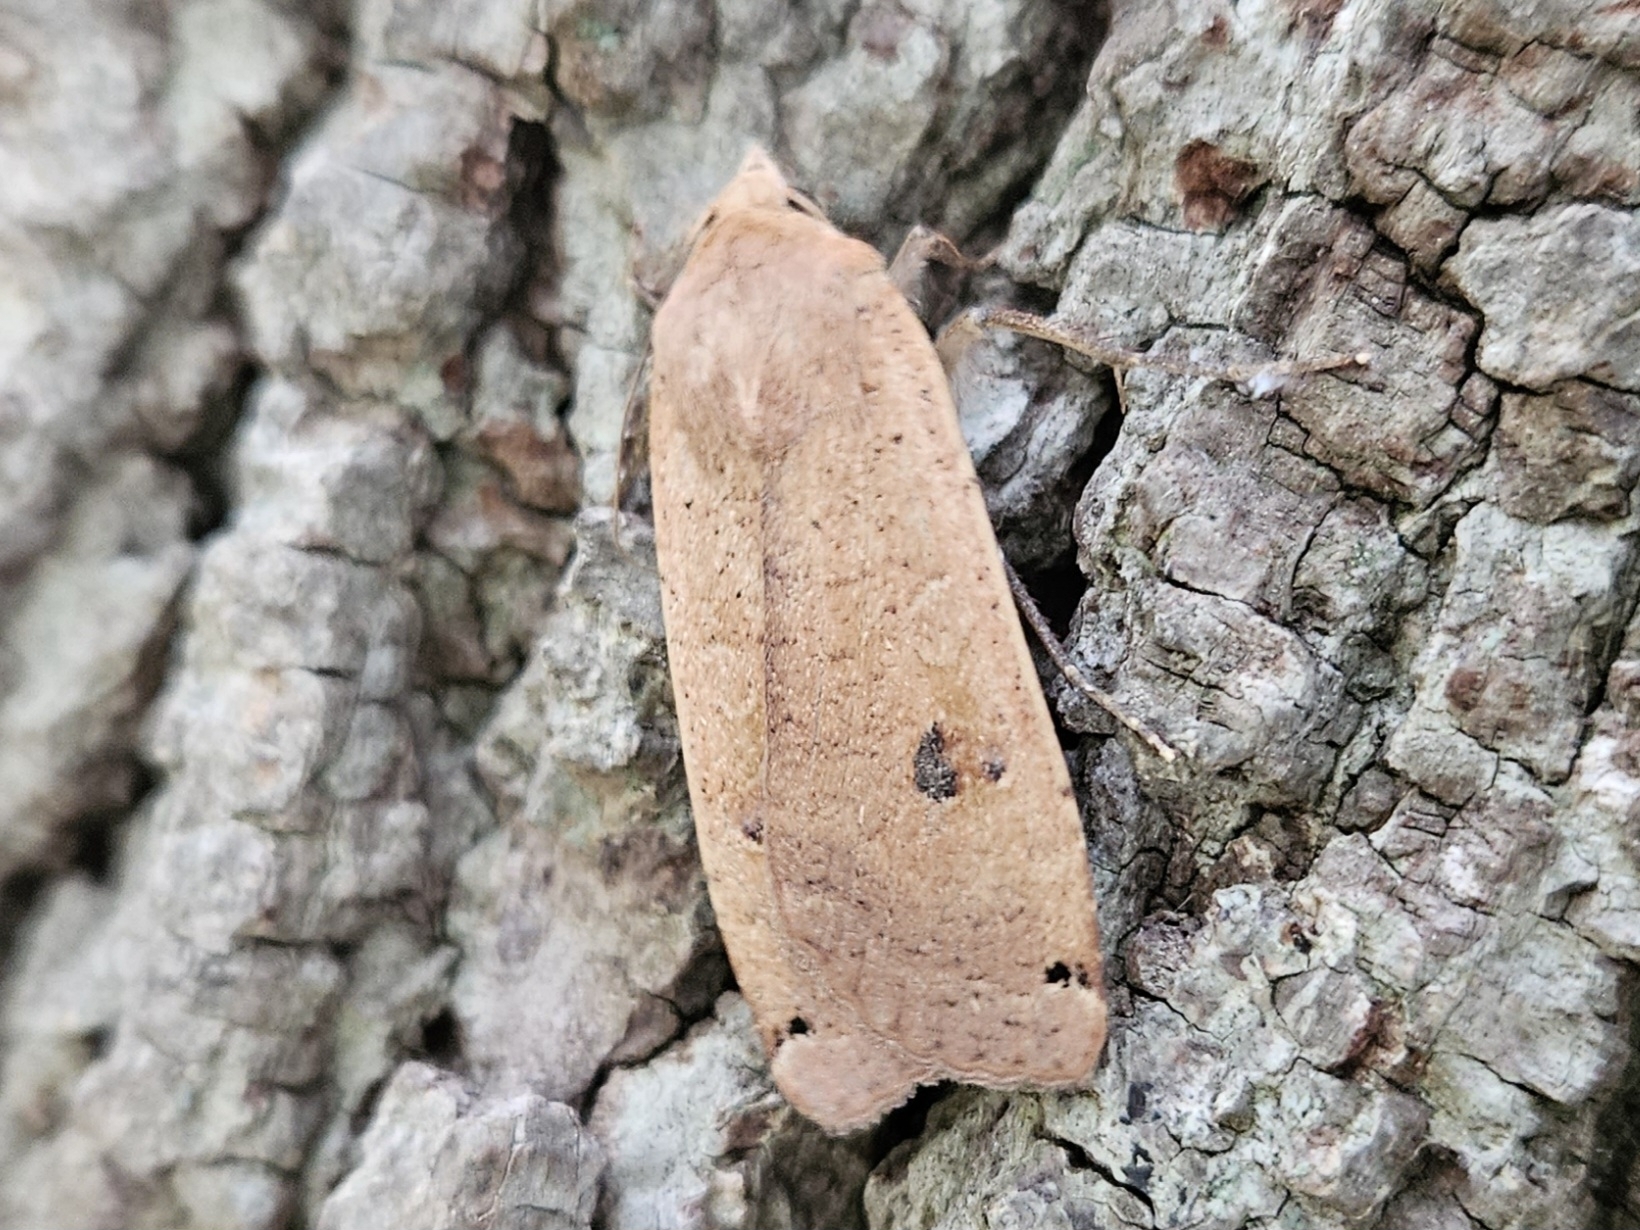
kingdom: Animalia
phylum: Arthropoda
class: Insecta
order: Lepidoptera
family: Noctuidae
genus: Noctua
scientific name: Noctua pronuba
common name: Large yellow underwing
